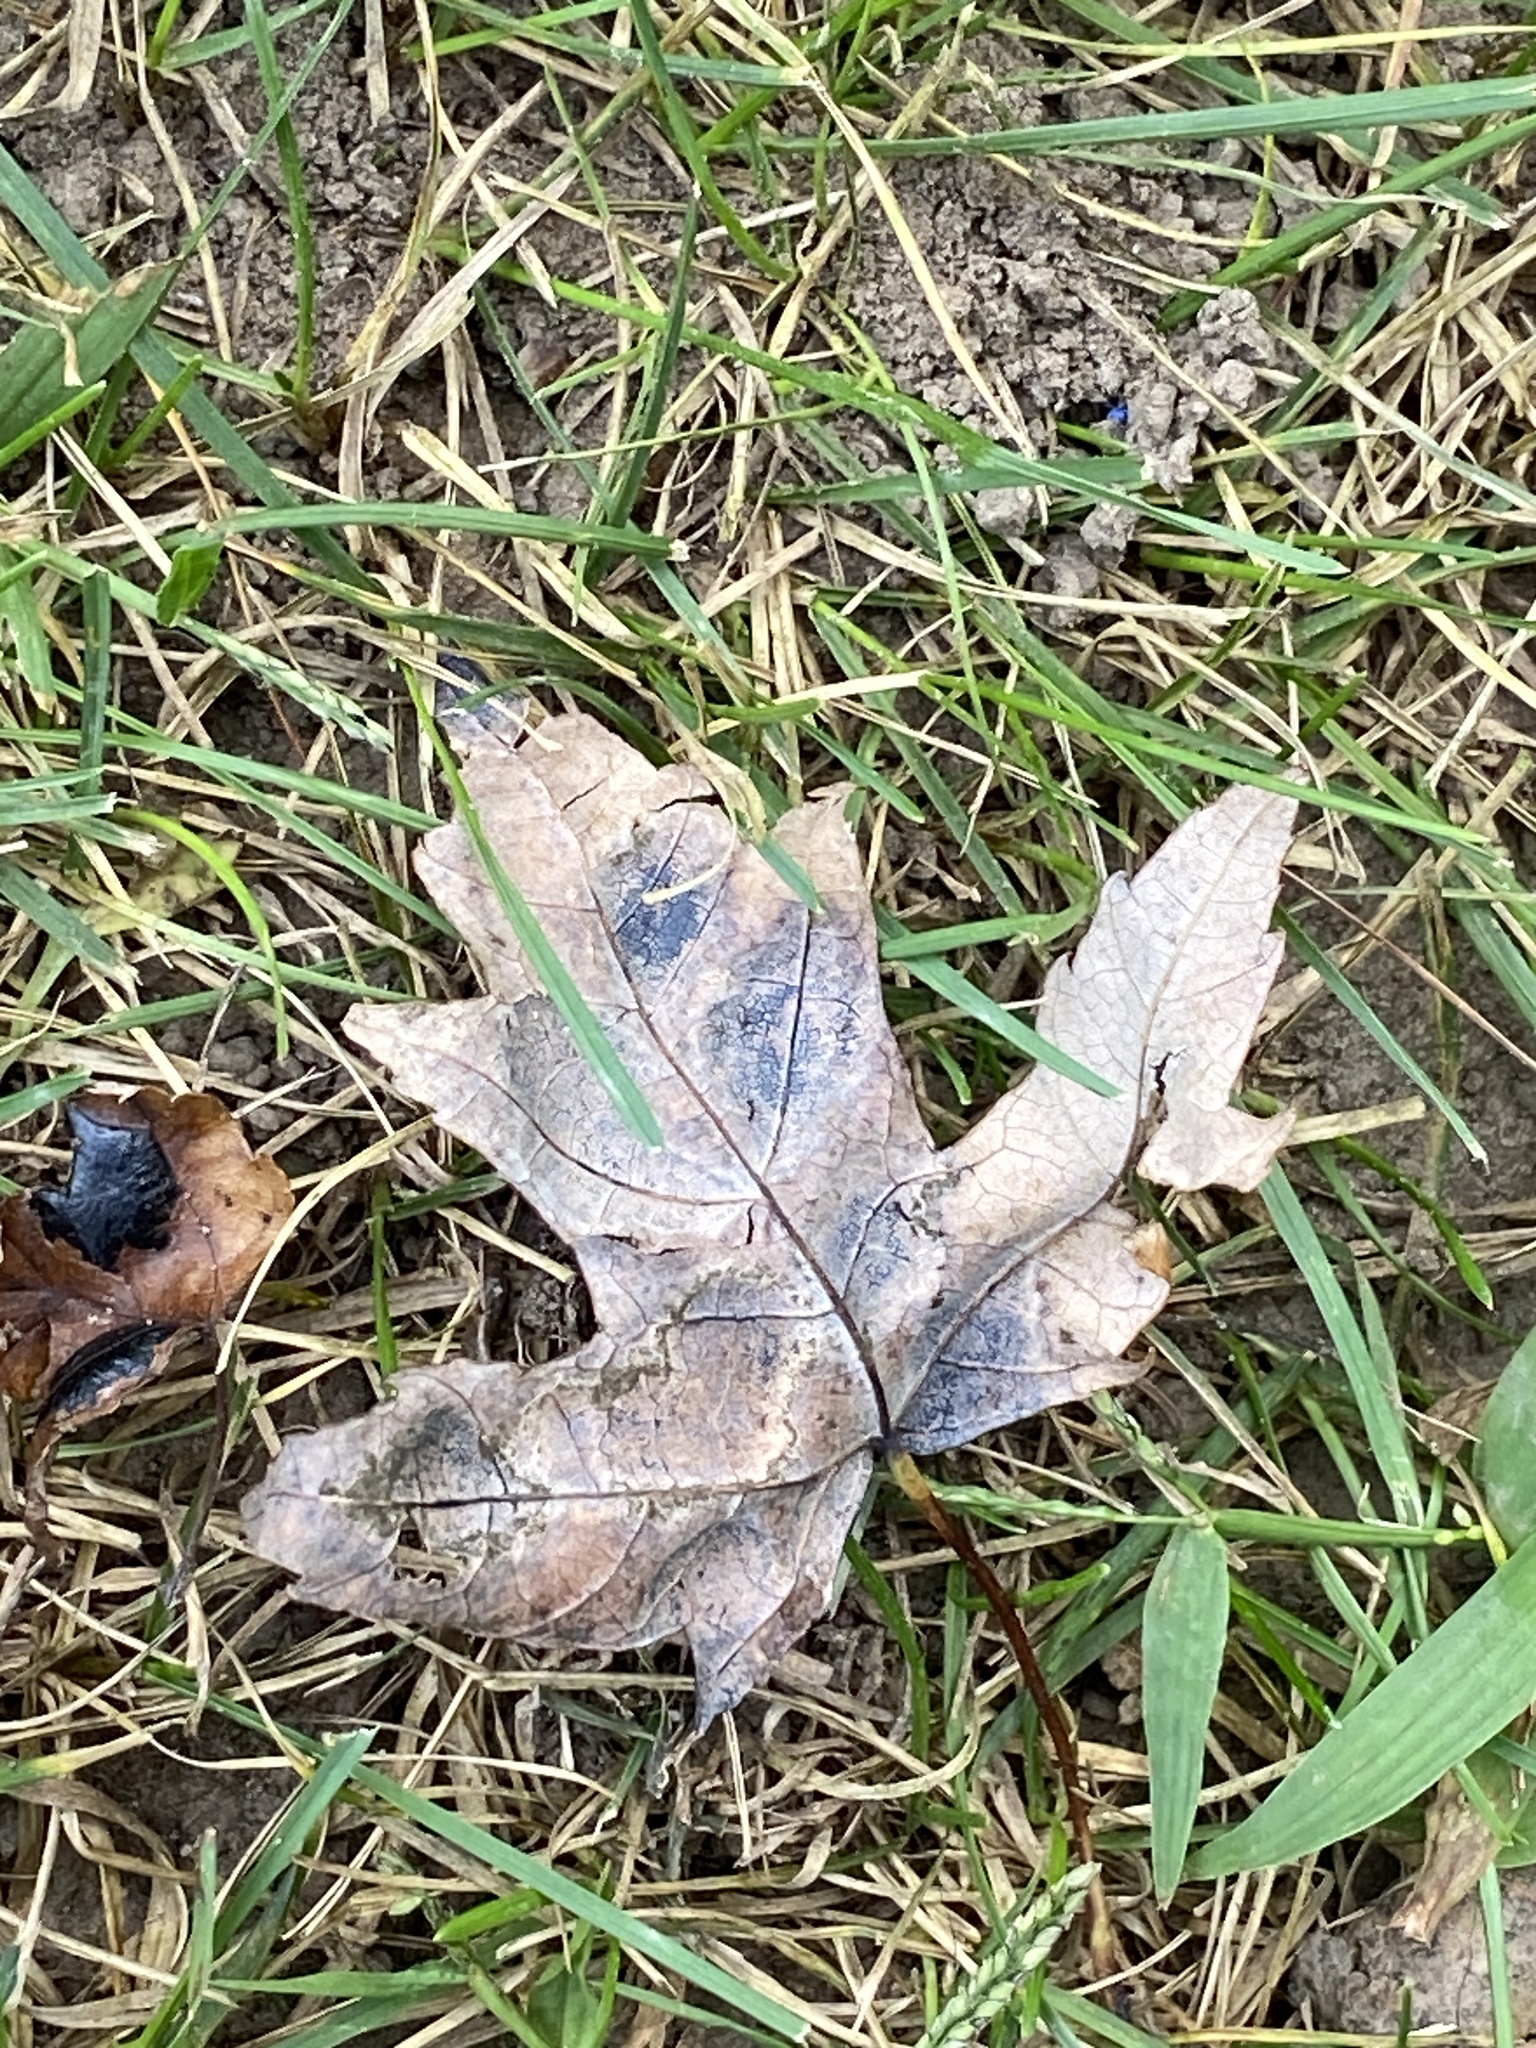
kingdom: Fungi
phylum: Ascomycota
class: Leotiomycetes
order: Rhytismatales
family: Rhytismataceae
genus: Rhytisma
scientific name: Rhytisma americanum
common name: American tar spot
